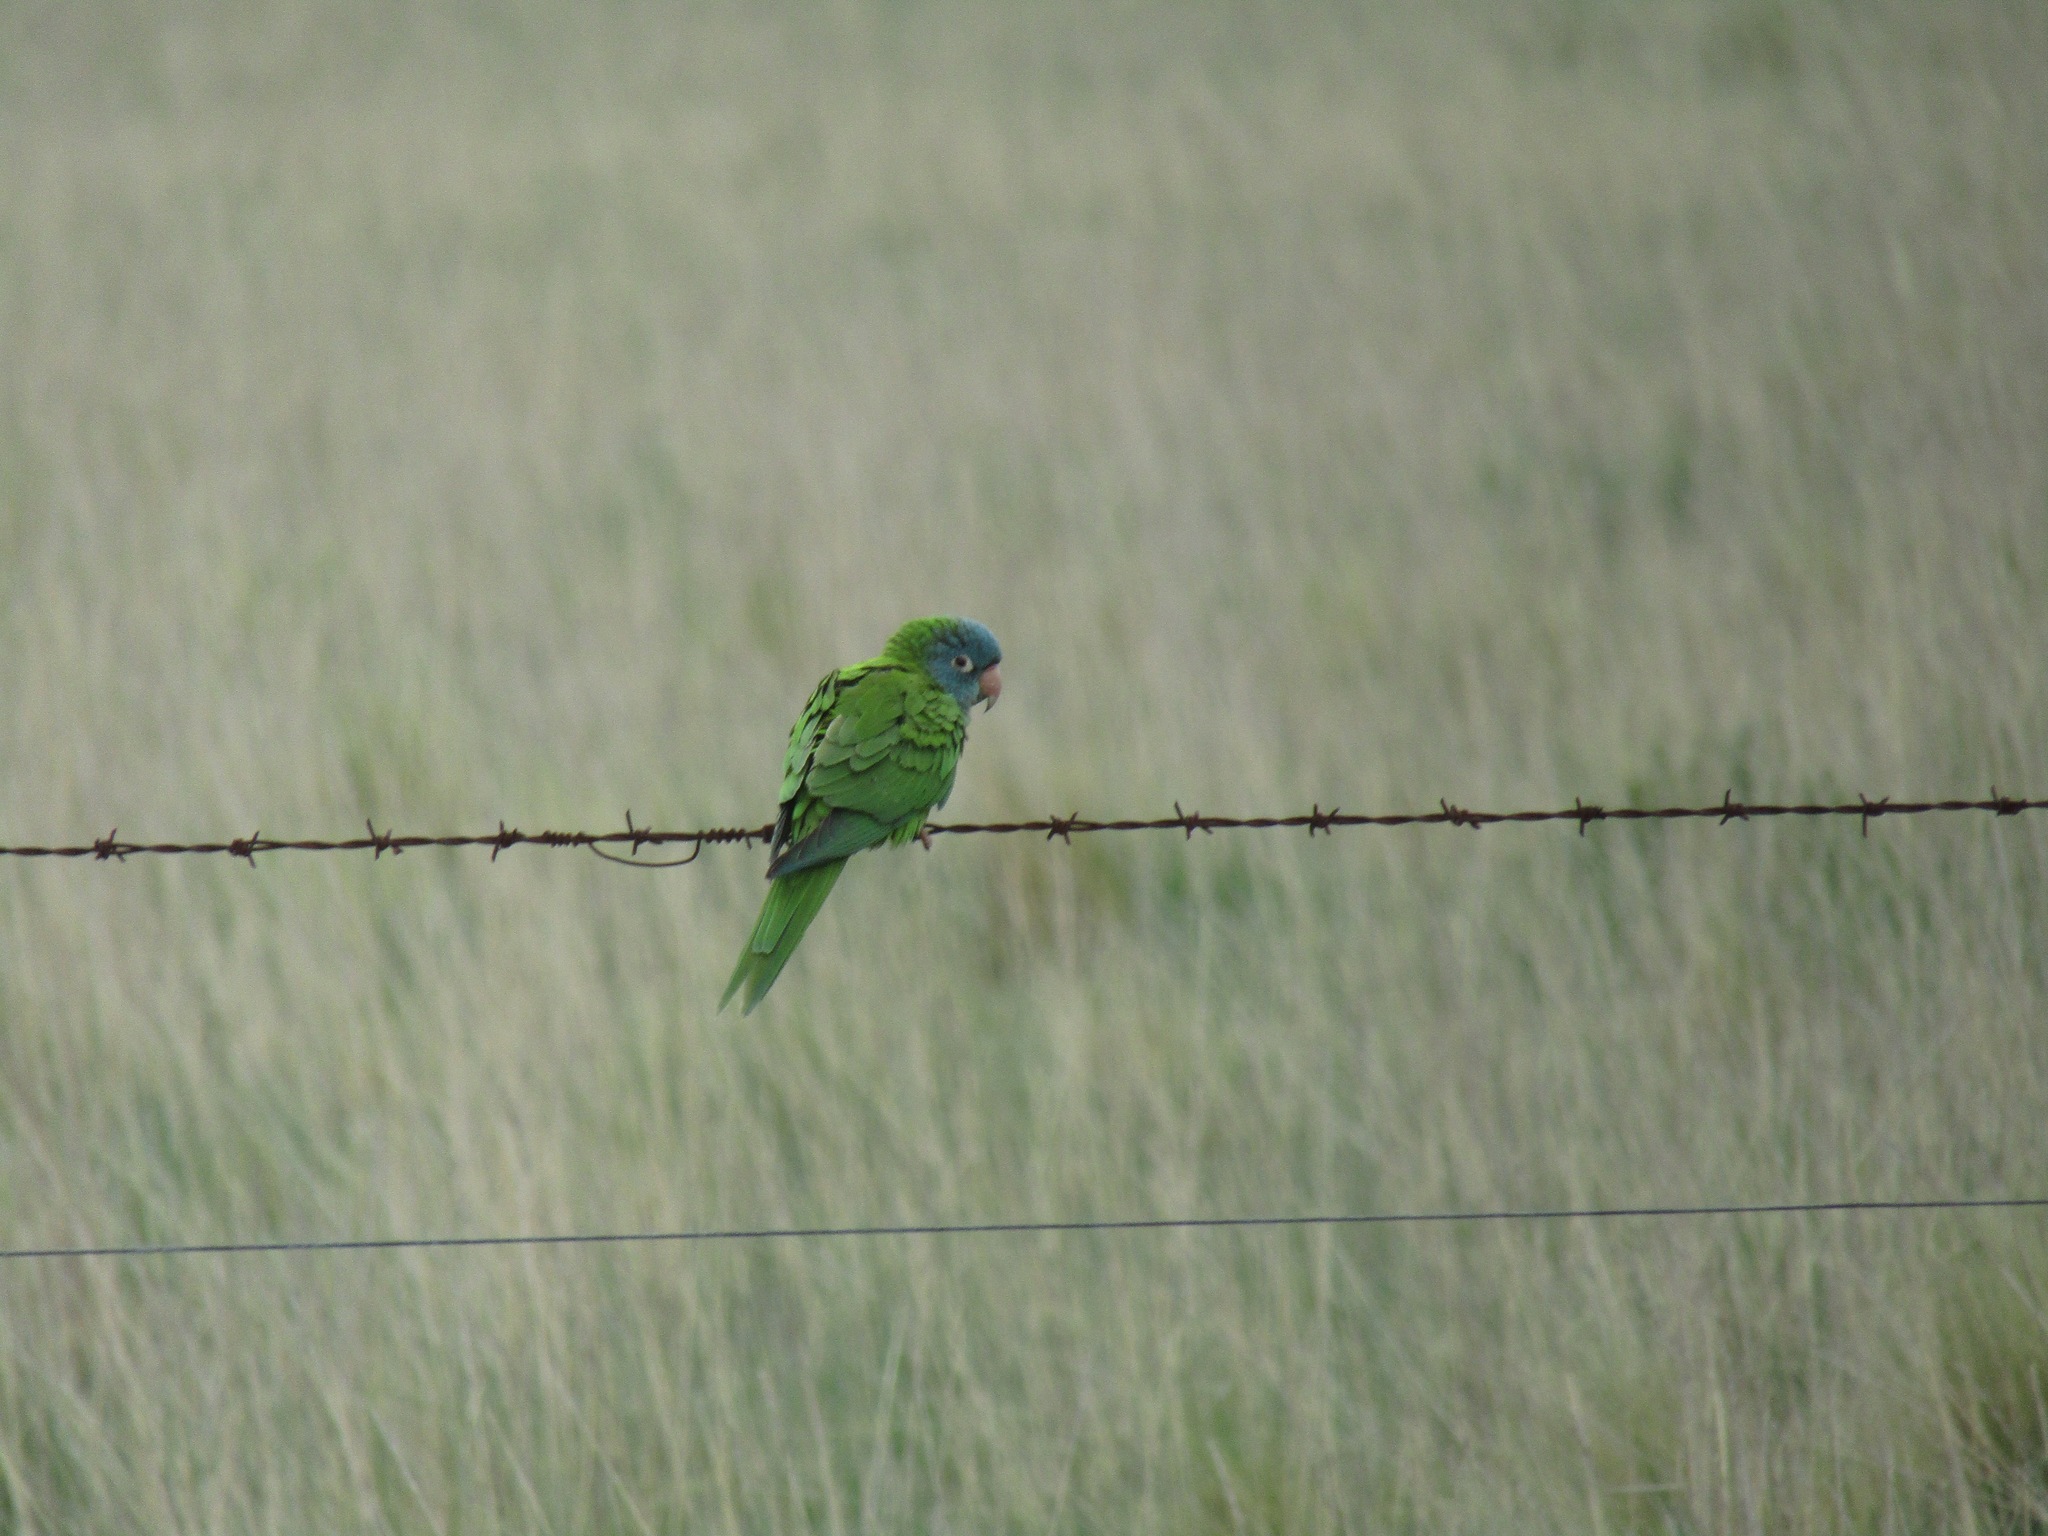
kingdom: Animalia
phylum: Chordata
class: Aves
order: Psittaciformes
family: Psittacidae
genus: Aratinga
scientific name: Aratinga acuticaudata
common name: Blue-crowned parakeet
